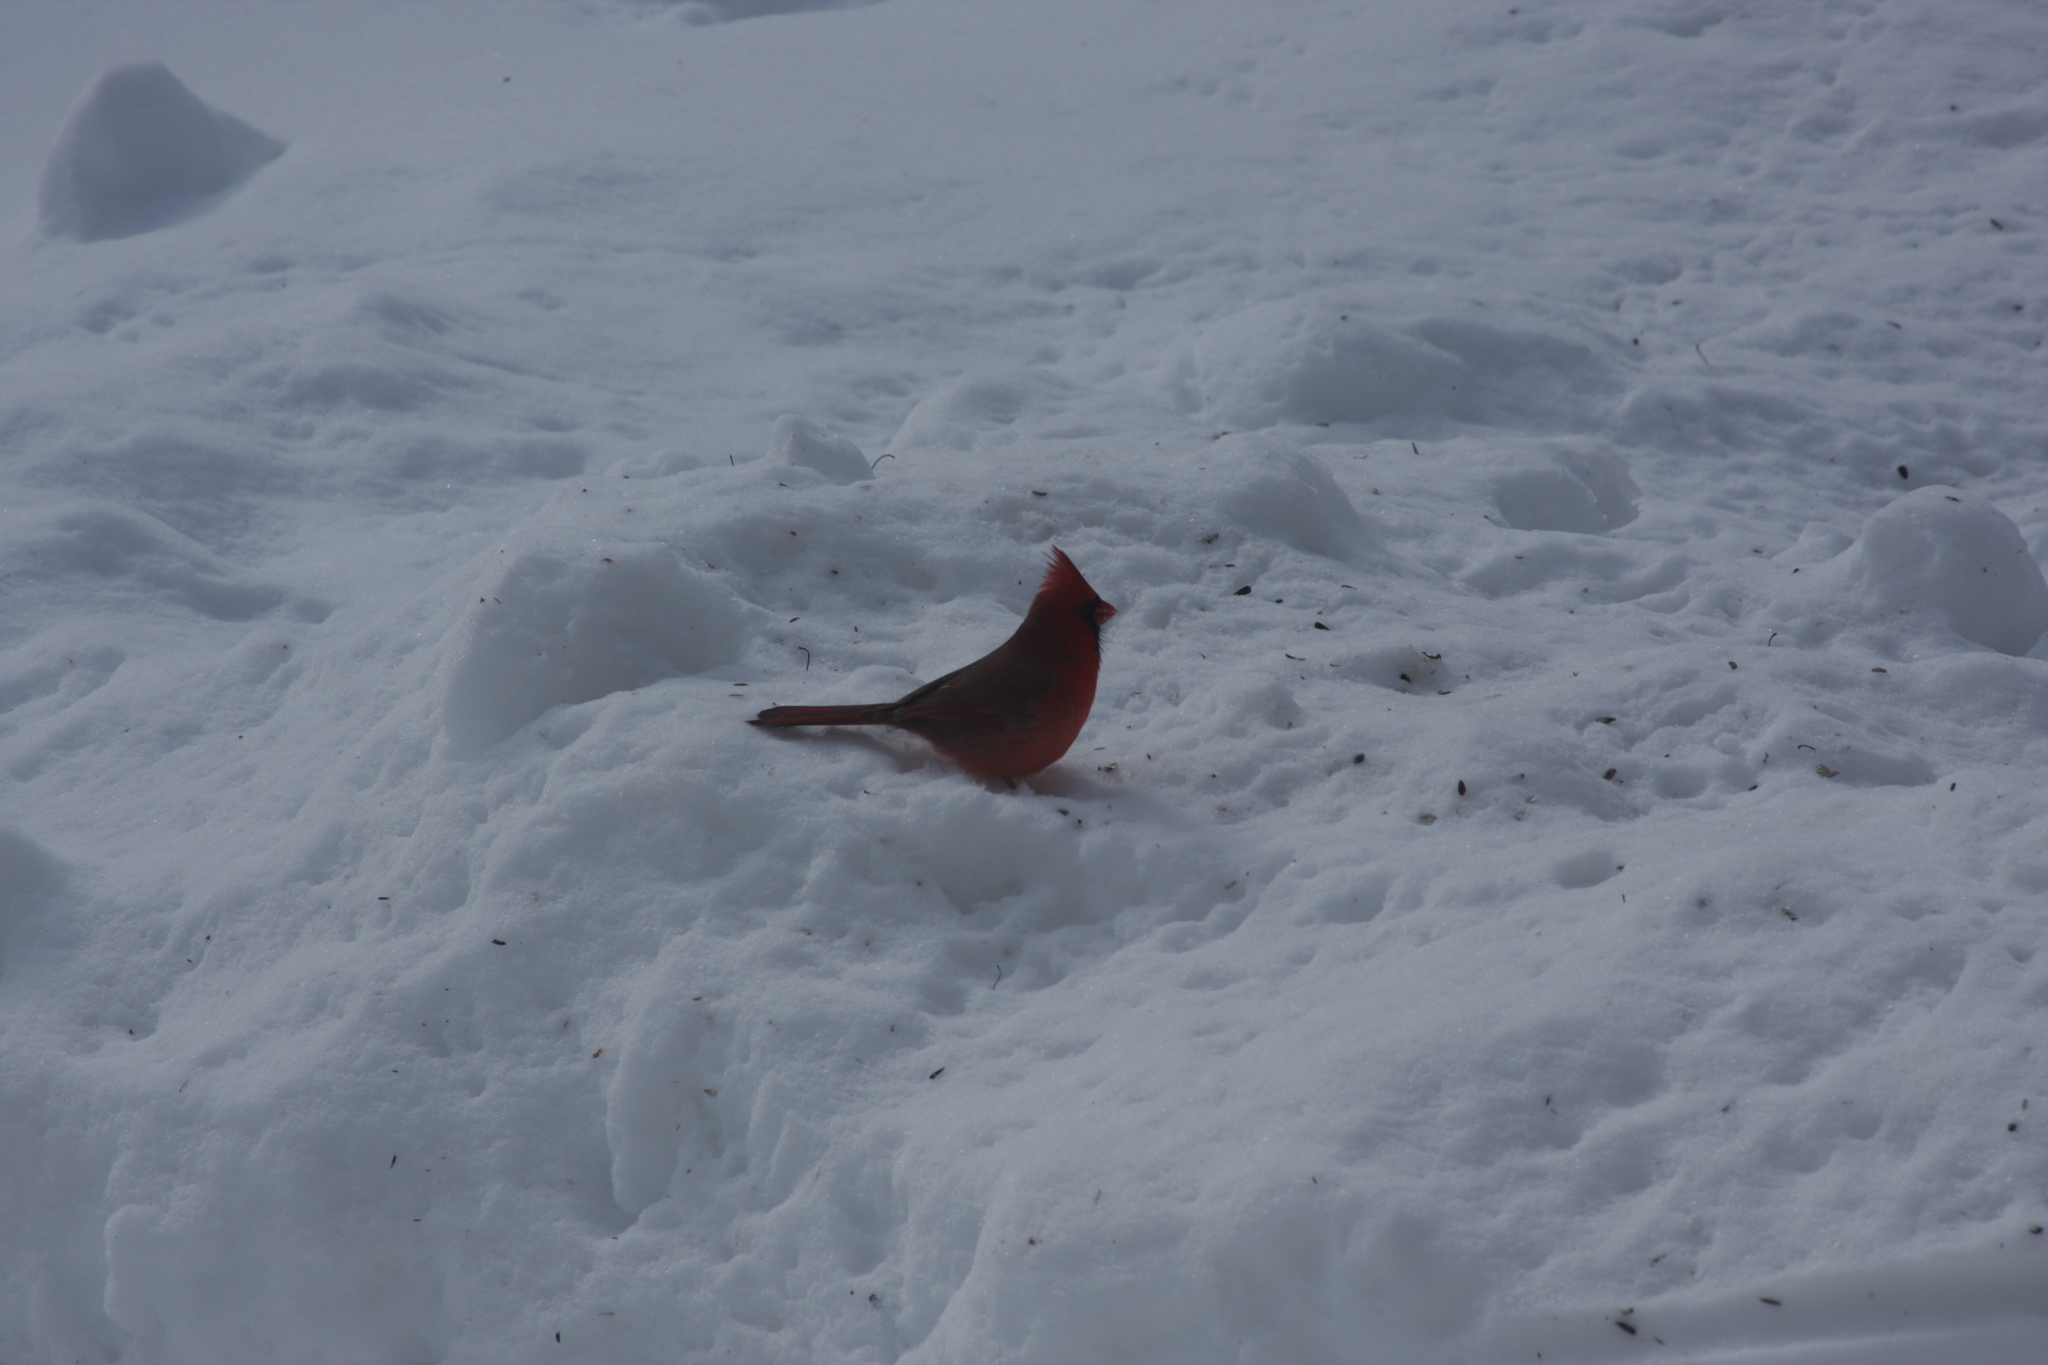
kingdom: Animalia
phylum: Chordata
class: Aves
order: Passeriformes
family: Cardinalidae
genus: Cardinalis
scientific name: Cardinalis cardinalis
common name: Northern cardinal
